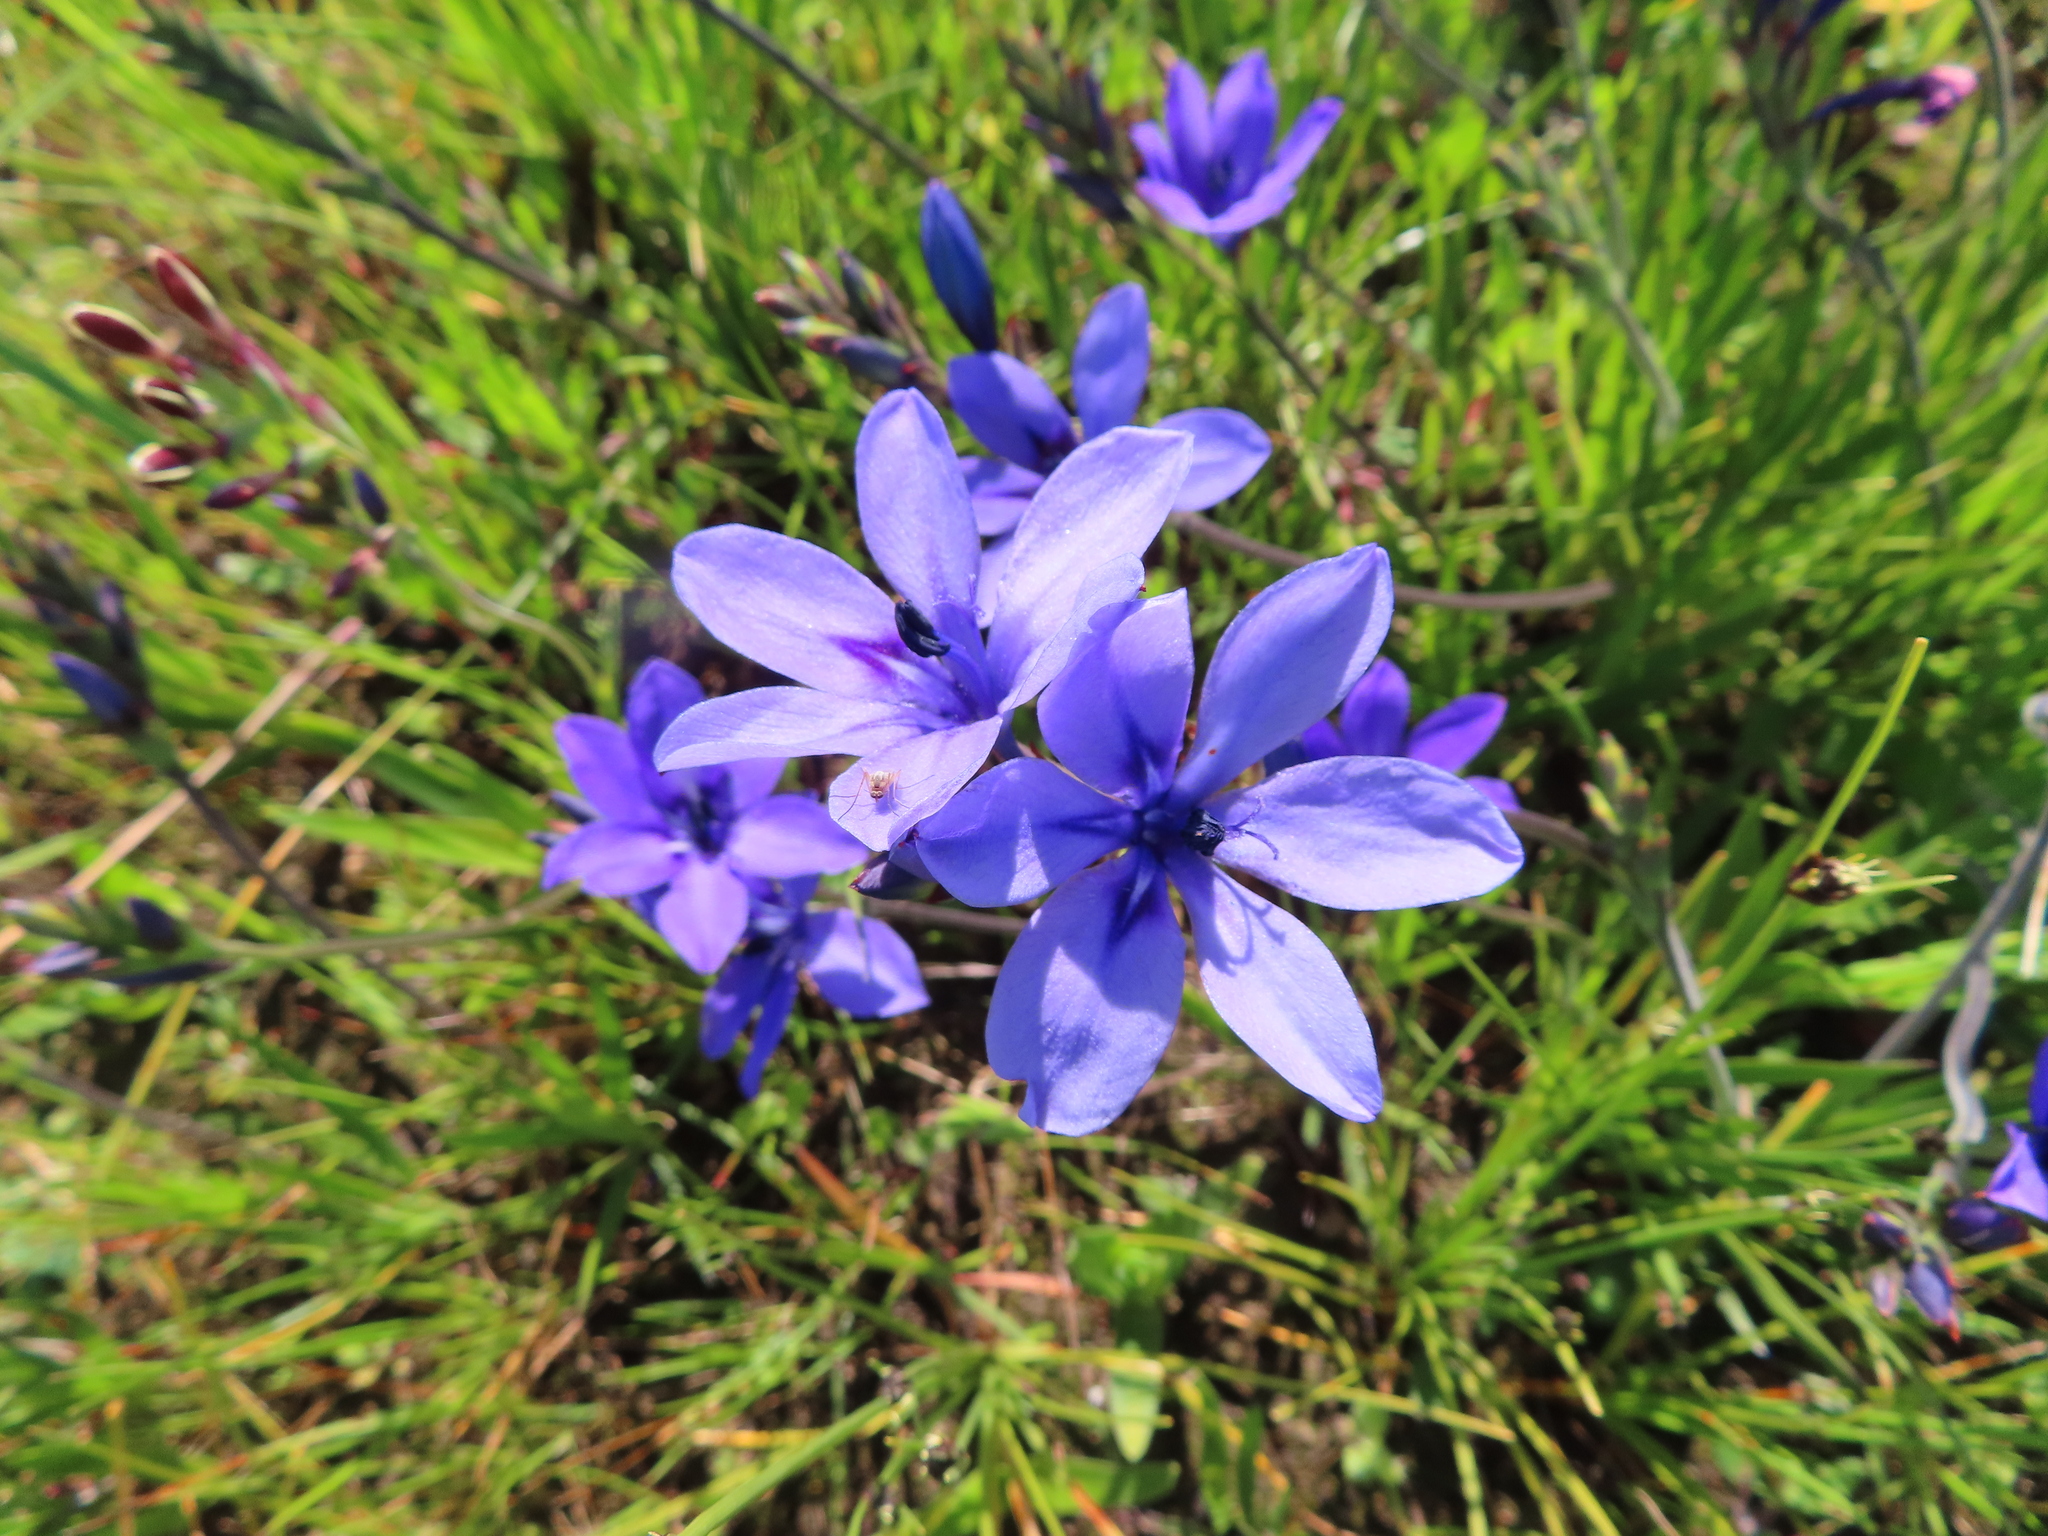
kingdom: Plantae
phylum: Tracheophyta
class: Liliopsida
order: Asparagales
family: Iridaceae
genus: Babiana
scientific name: Babiana angustifolia
